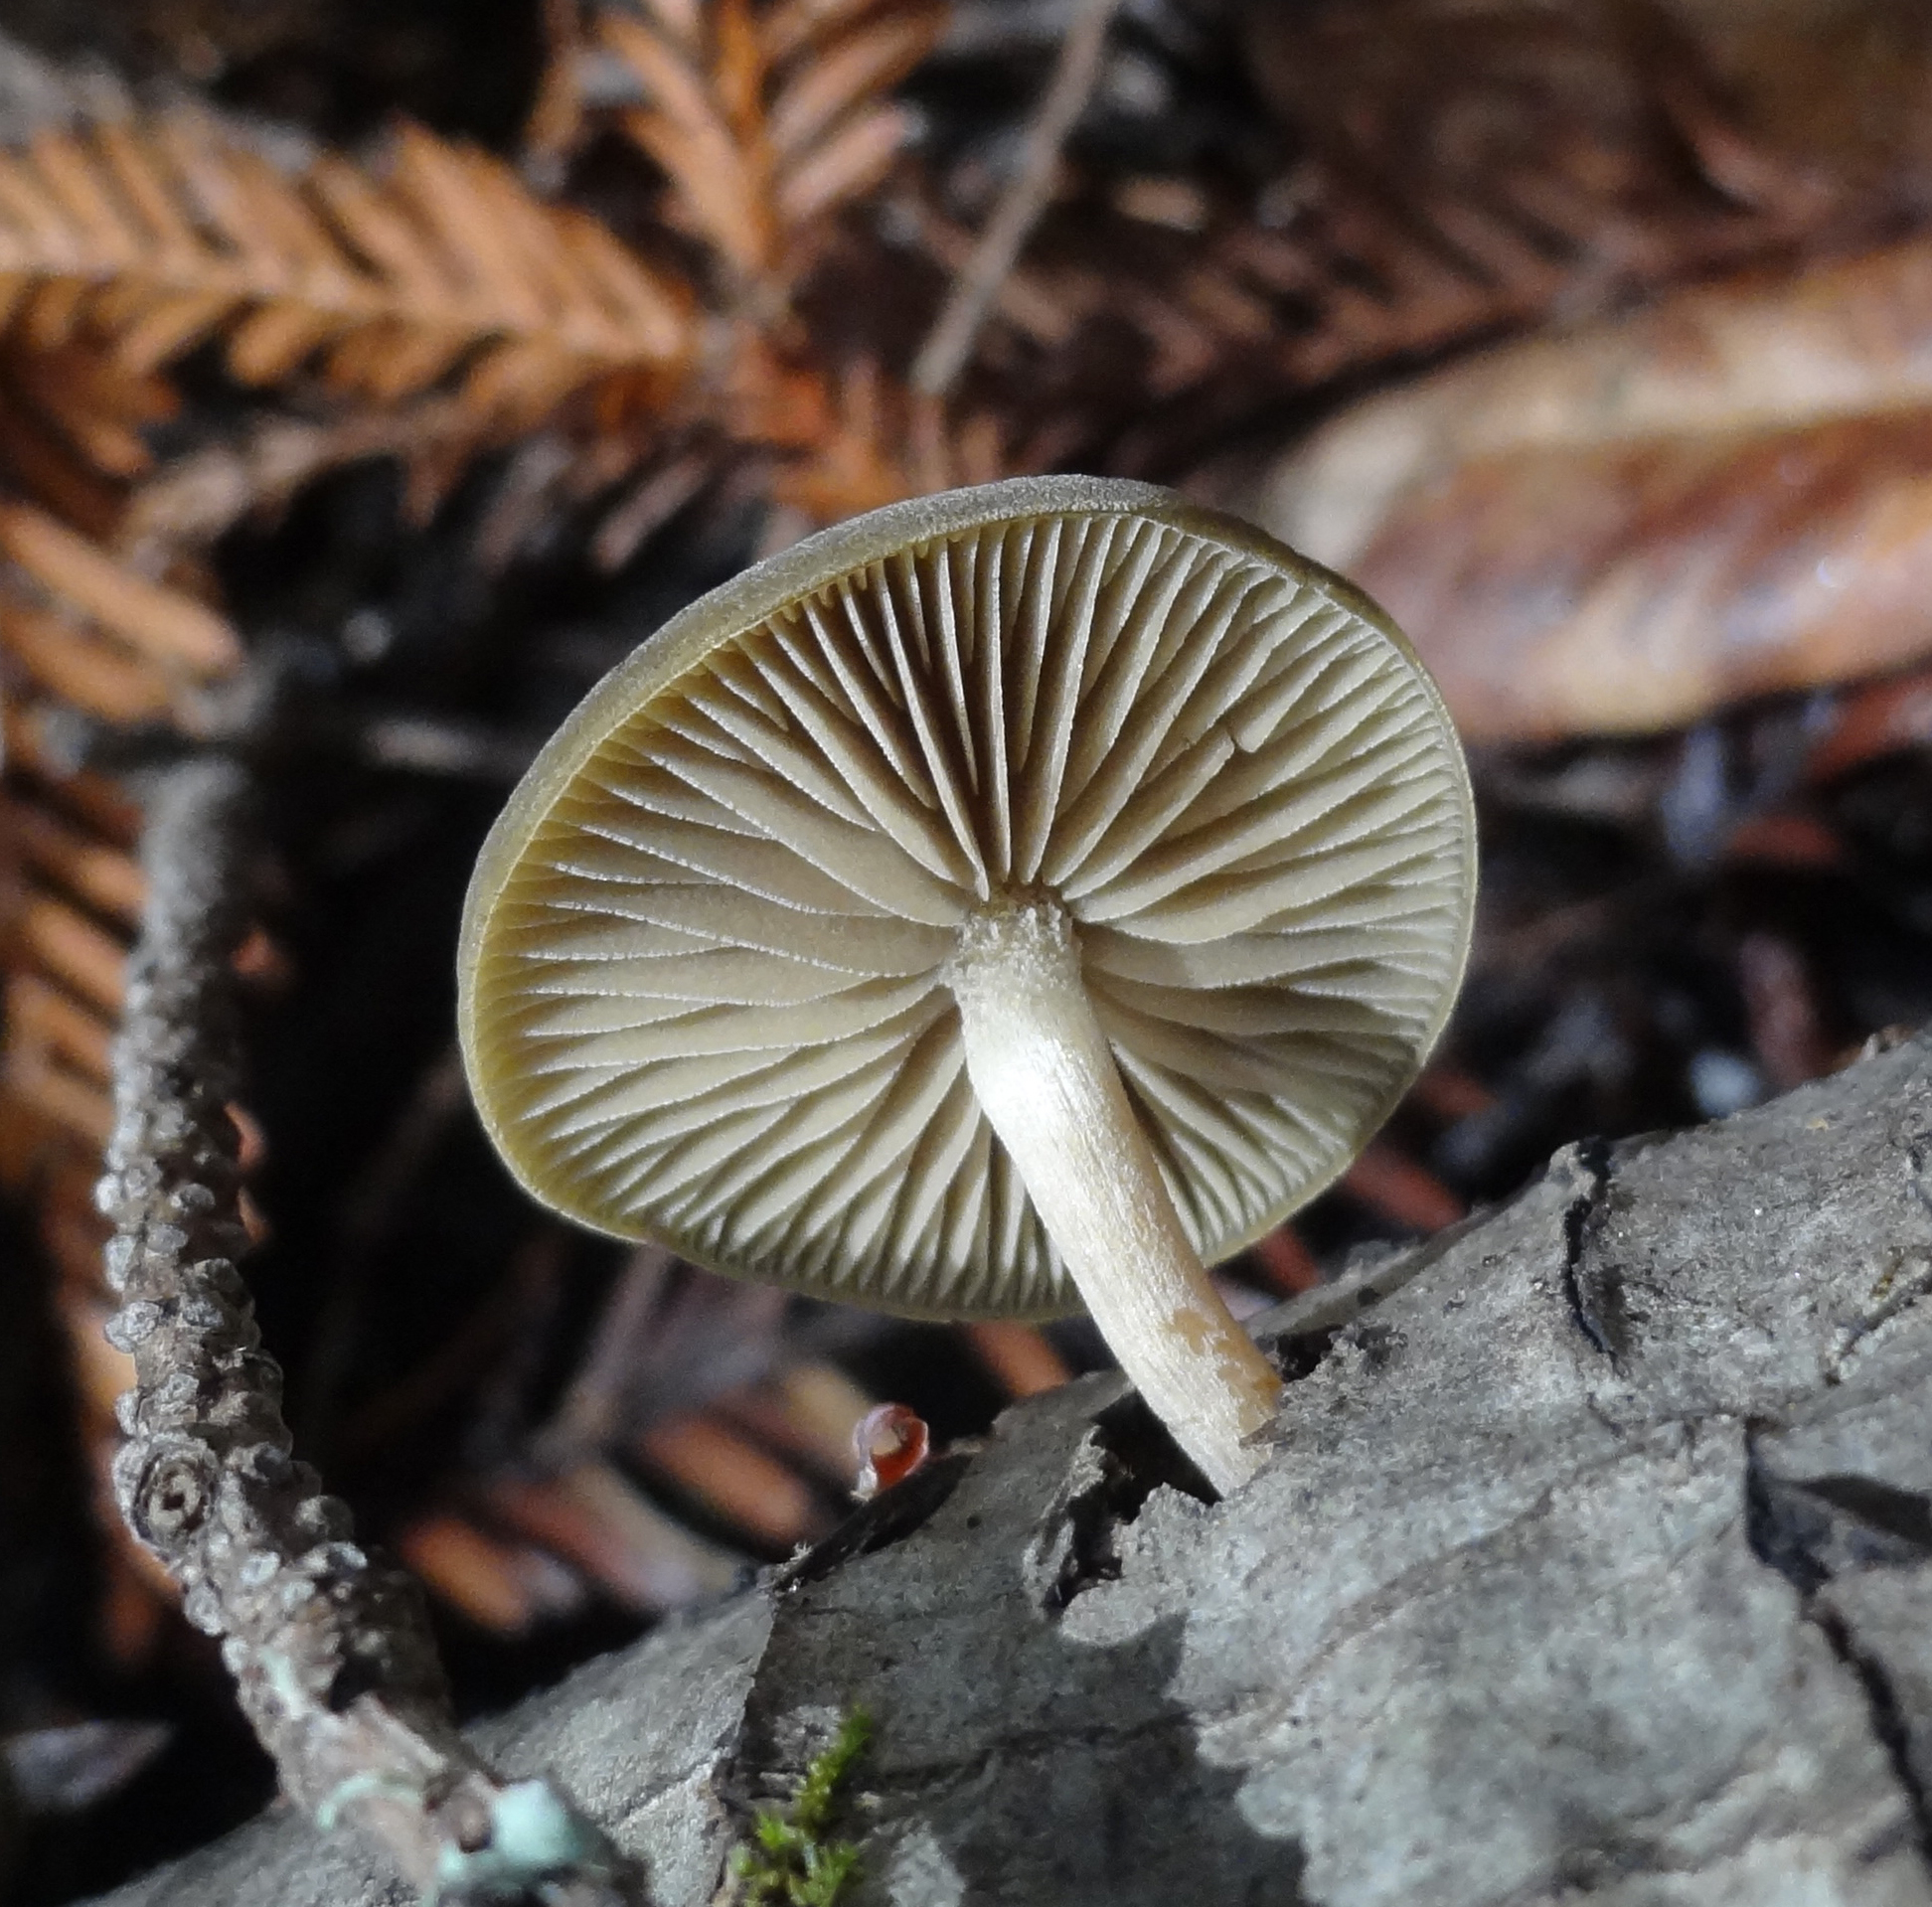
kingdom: Fungi
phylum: Basidiomycota
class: Agaricomycetes
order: Agaricales
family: Crepidotaceae
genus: Simocybe
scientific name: Simocybe centunculus
